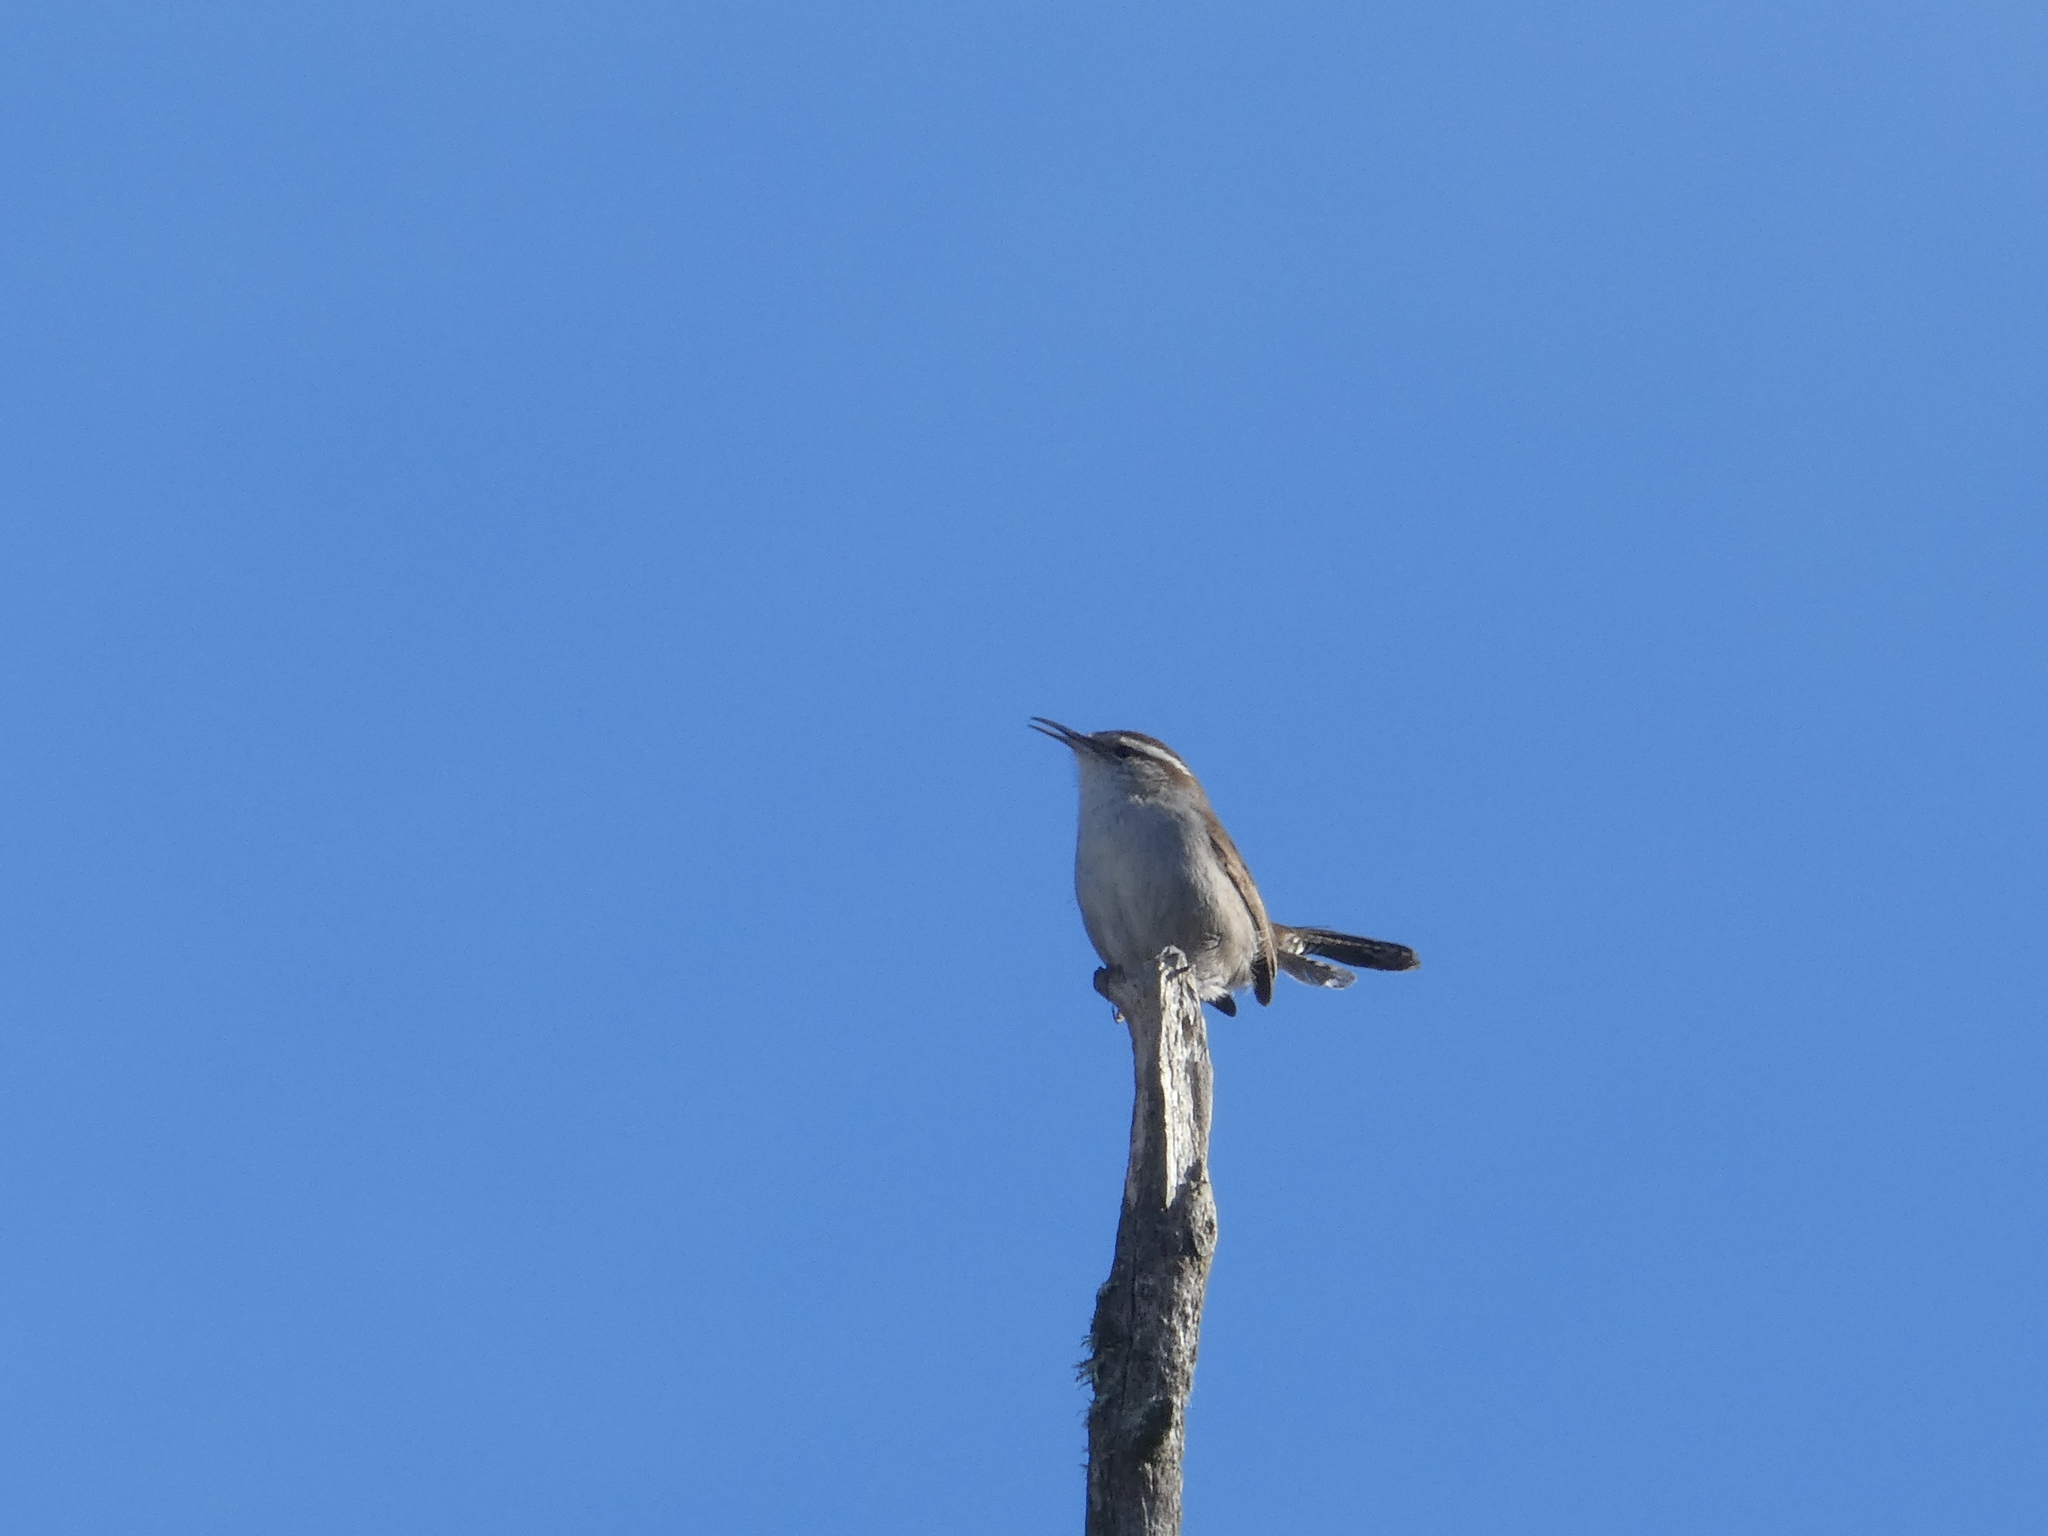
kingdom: Animalia
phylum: Chordata
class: Aves
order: Passeriformes
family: Troglodytidae
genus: Thryomanes
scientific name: Thryomanes bewickii
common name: Bewick's wren
